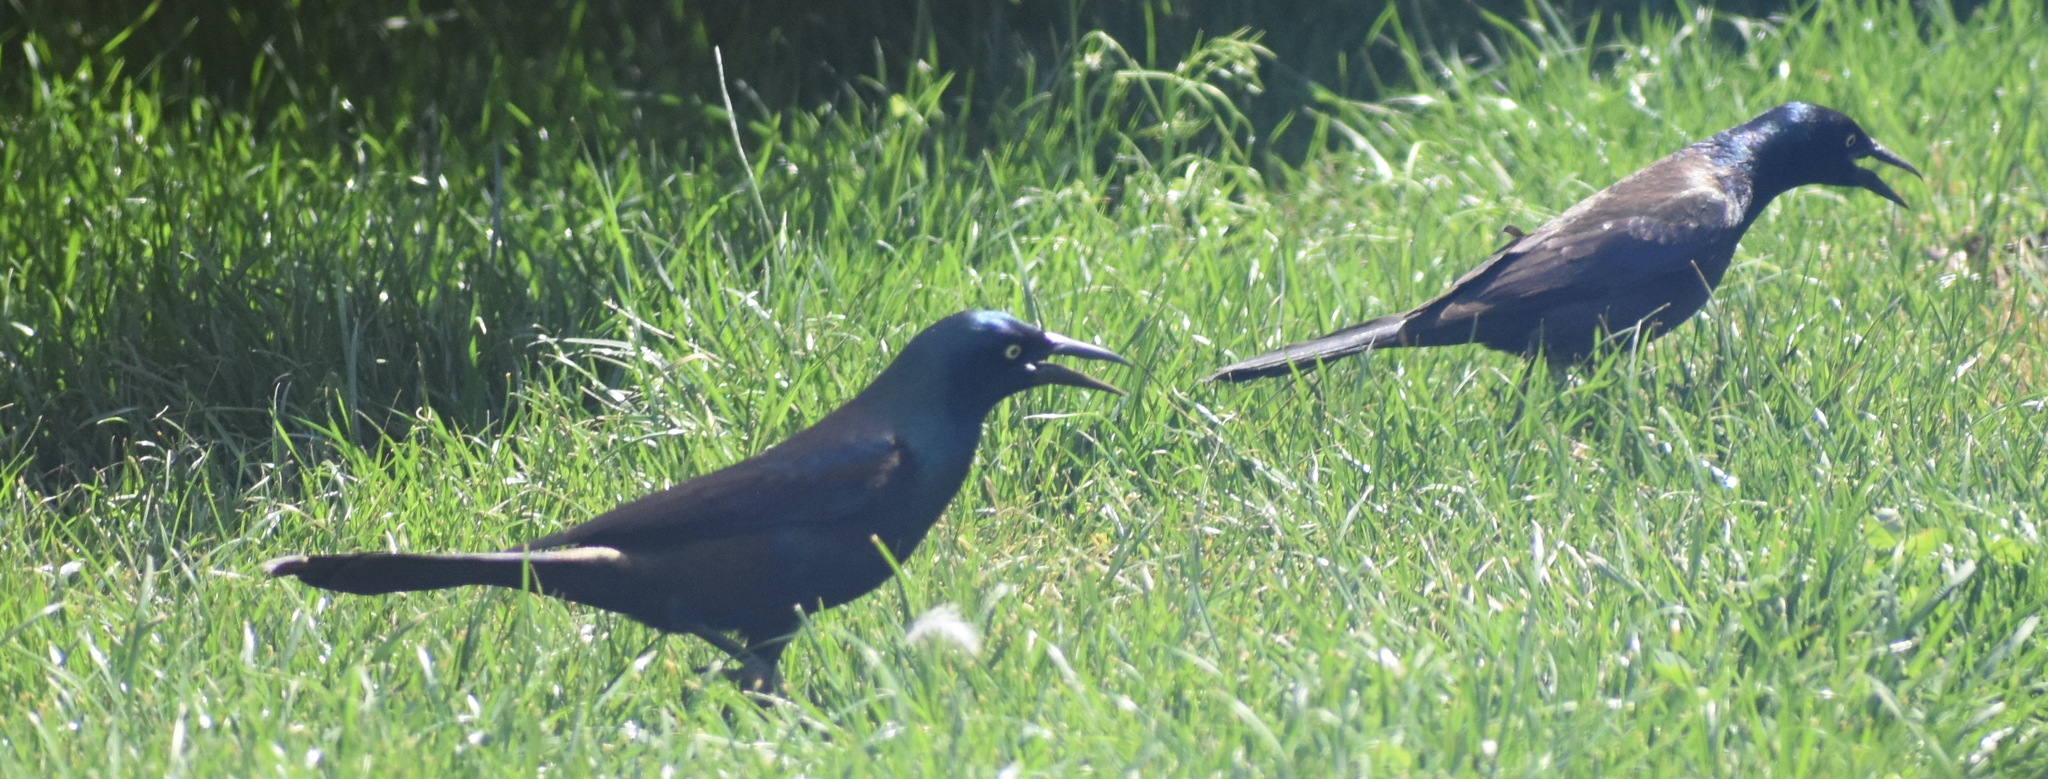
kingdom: Animalia
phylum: Chordata
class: Aves
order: Passeriformes
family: Icteridae
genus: Quiscalus
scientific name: Quiscalus quiscula
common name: Common grackle
